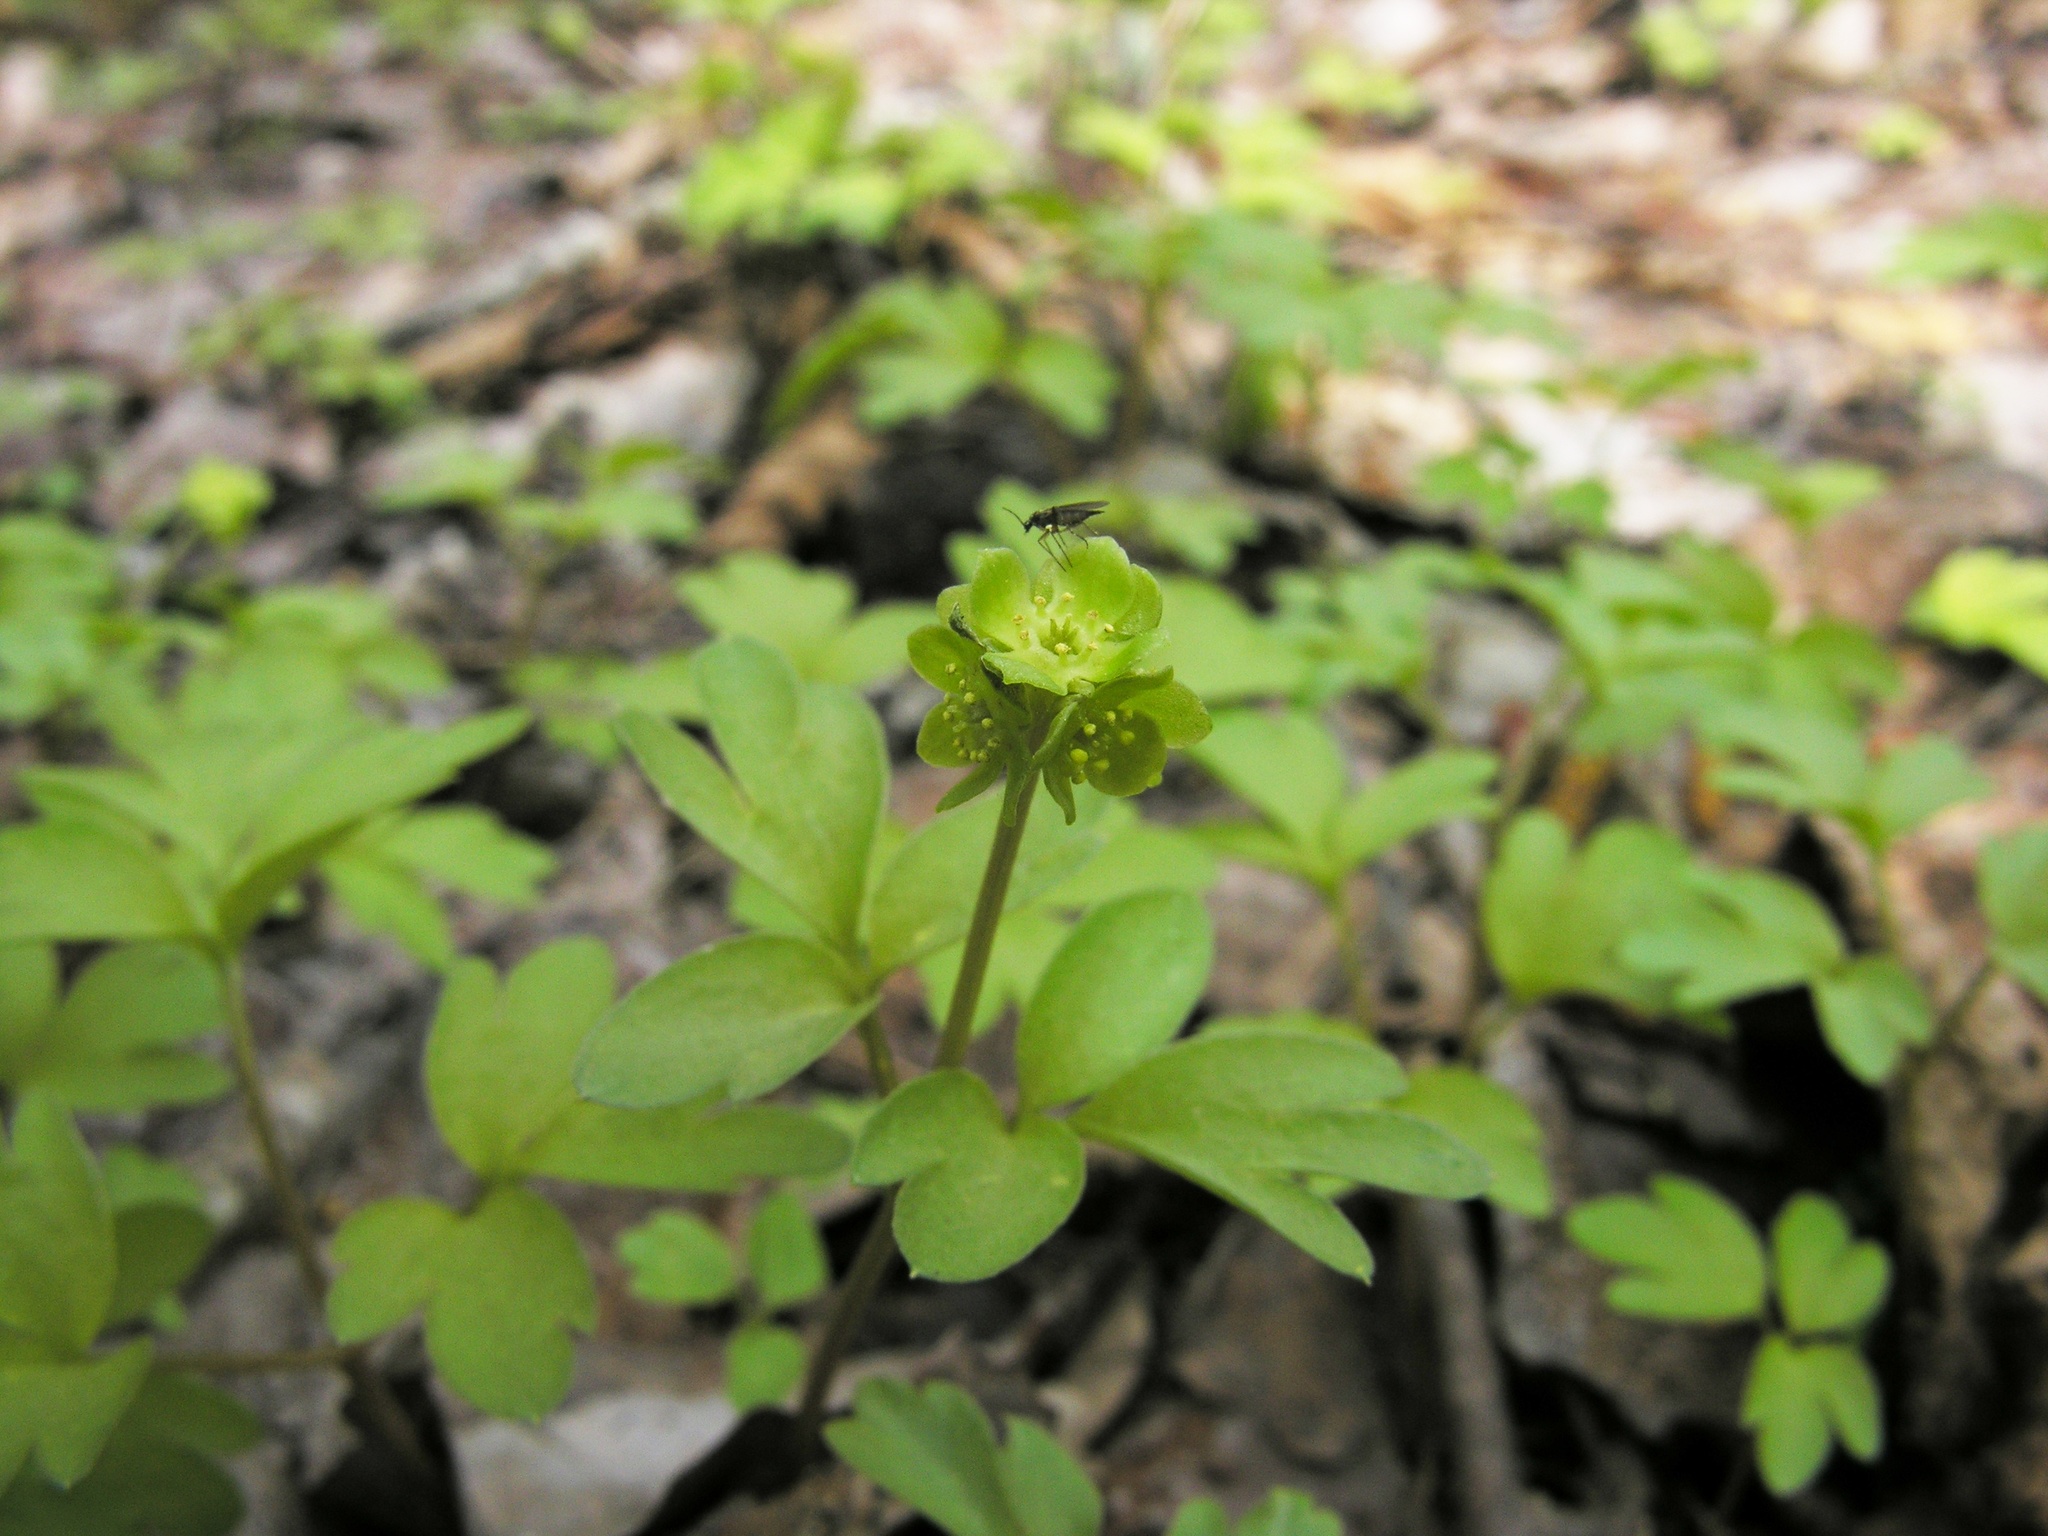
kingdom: Plantae
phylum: Tracheophyta
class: Magnoliopsida
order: Dipsacales
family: Viburnaceae
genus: Adoxa
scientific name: Adoxa moschatellina
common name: Moschatel
